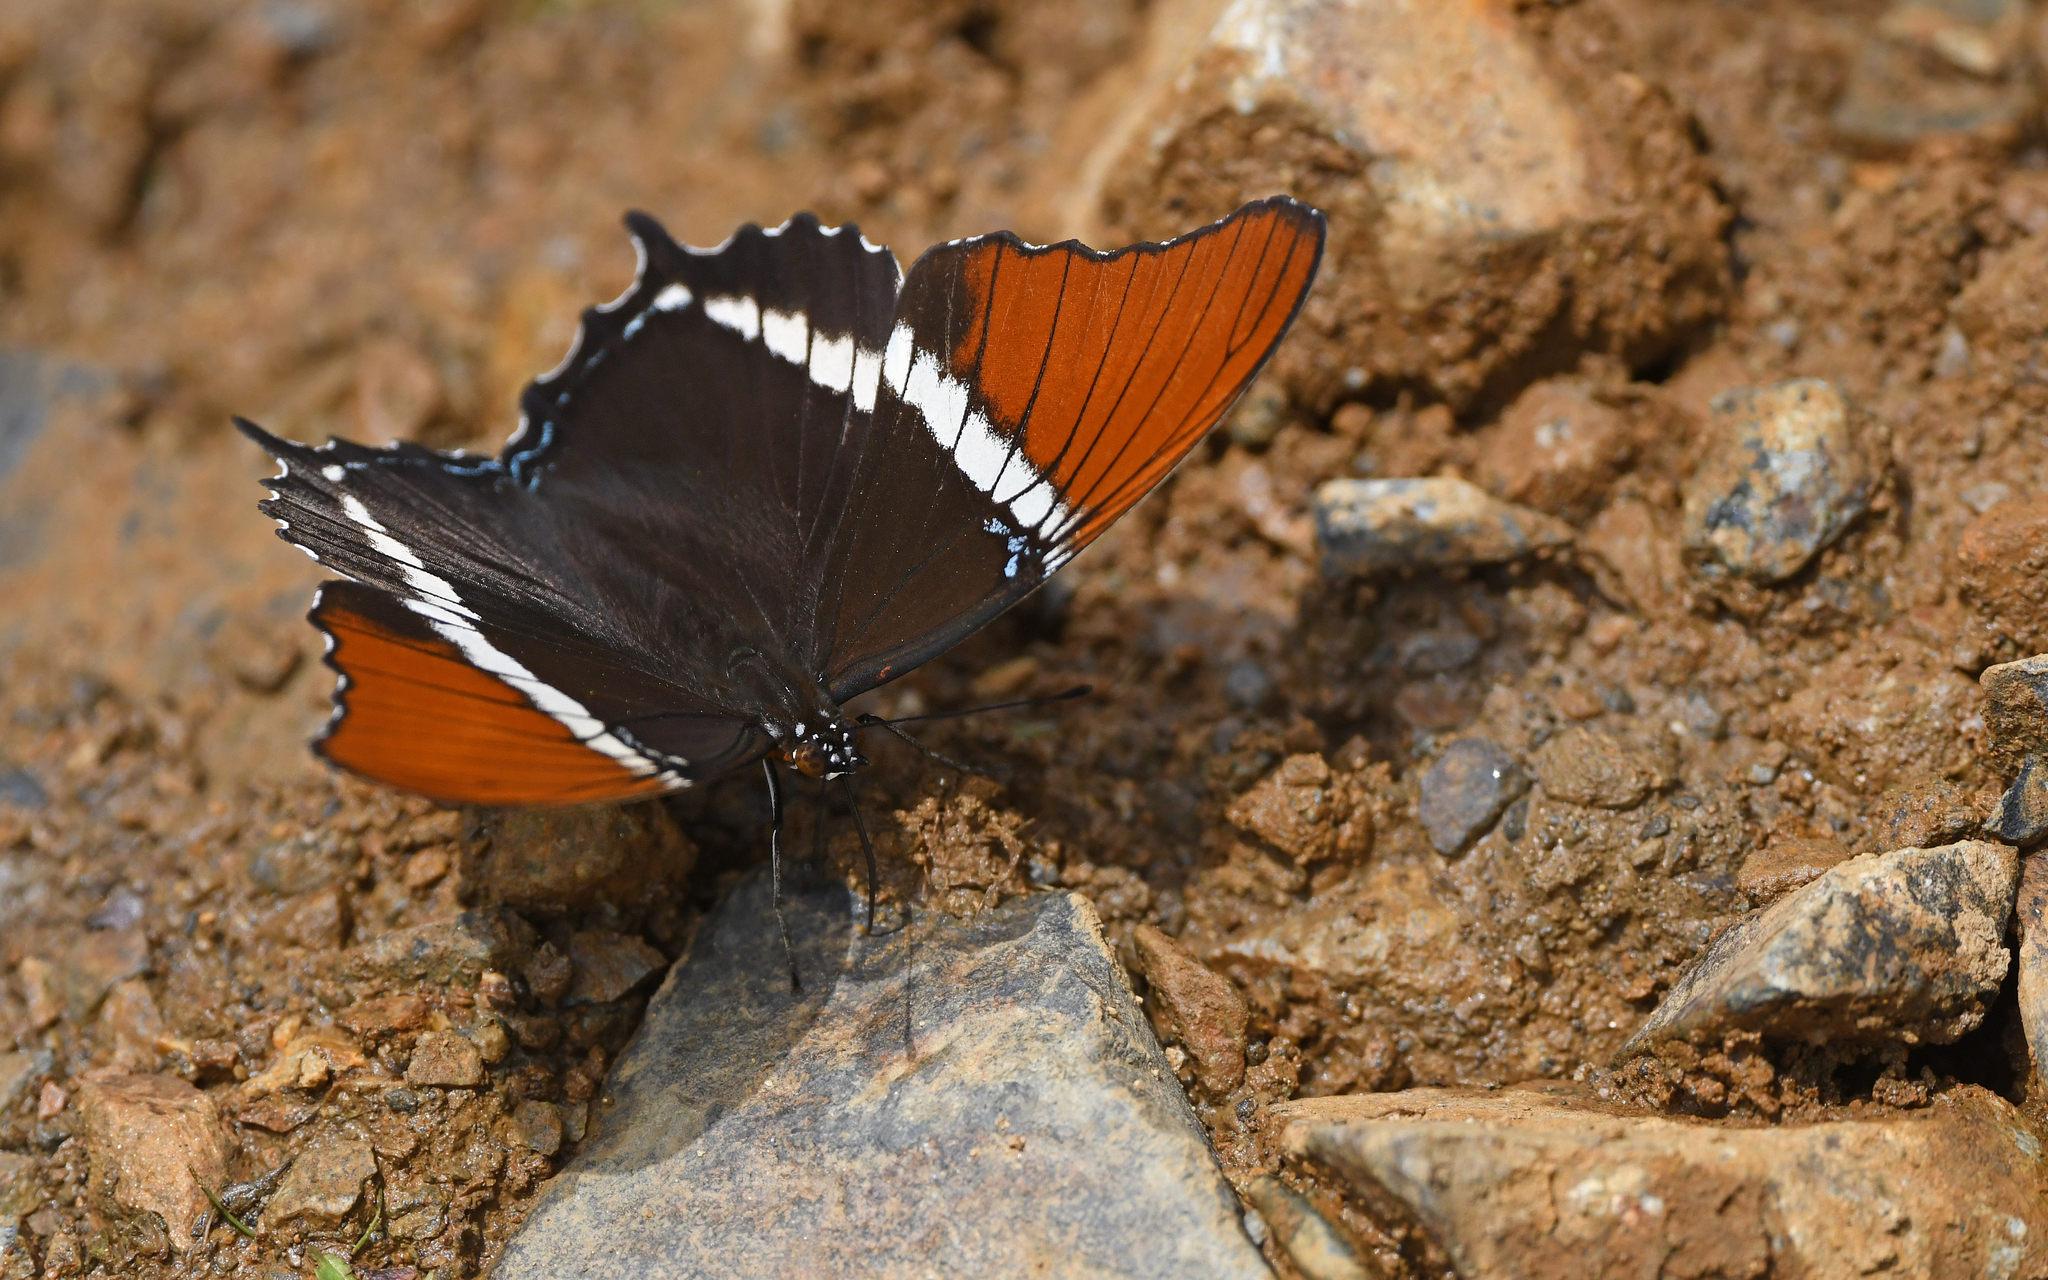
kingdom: Animalia
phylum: Arthropoda
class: Insecta
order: Lepidoptera
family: Nymphalidae
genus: Siproeta
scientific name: Siproeta epaphus
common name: Rusty-tipped page
